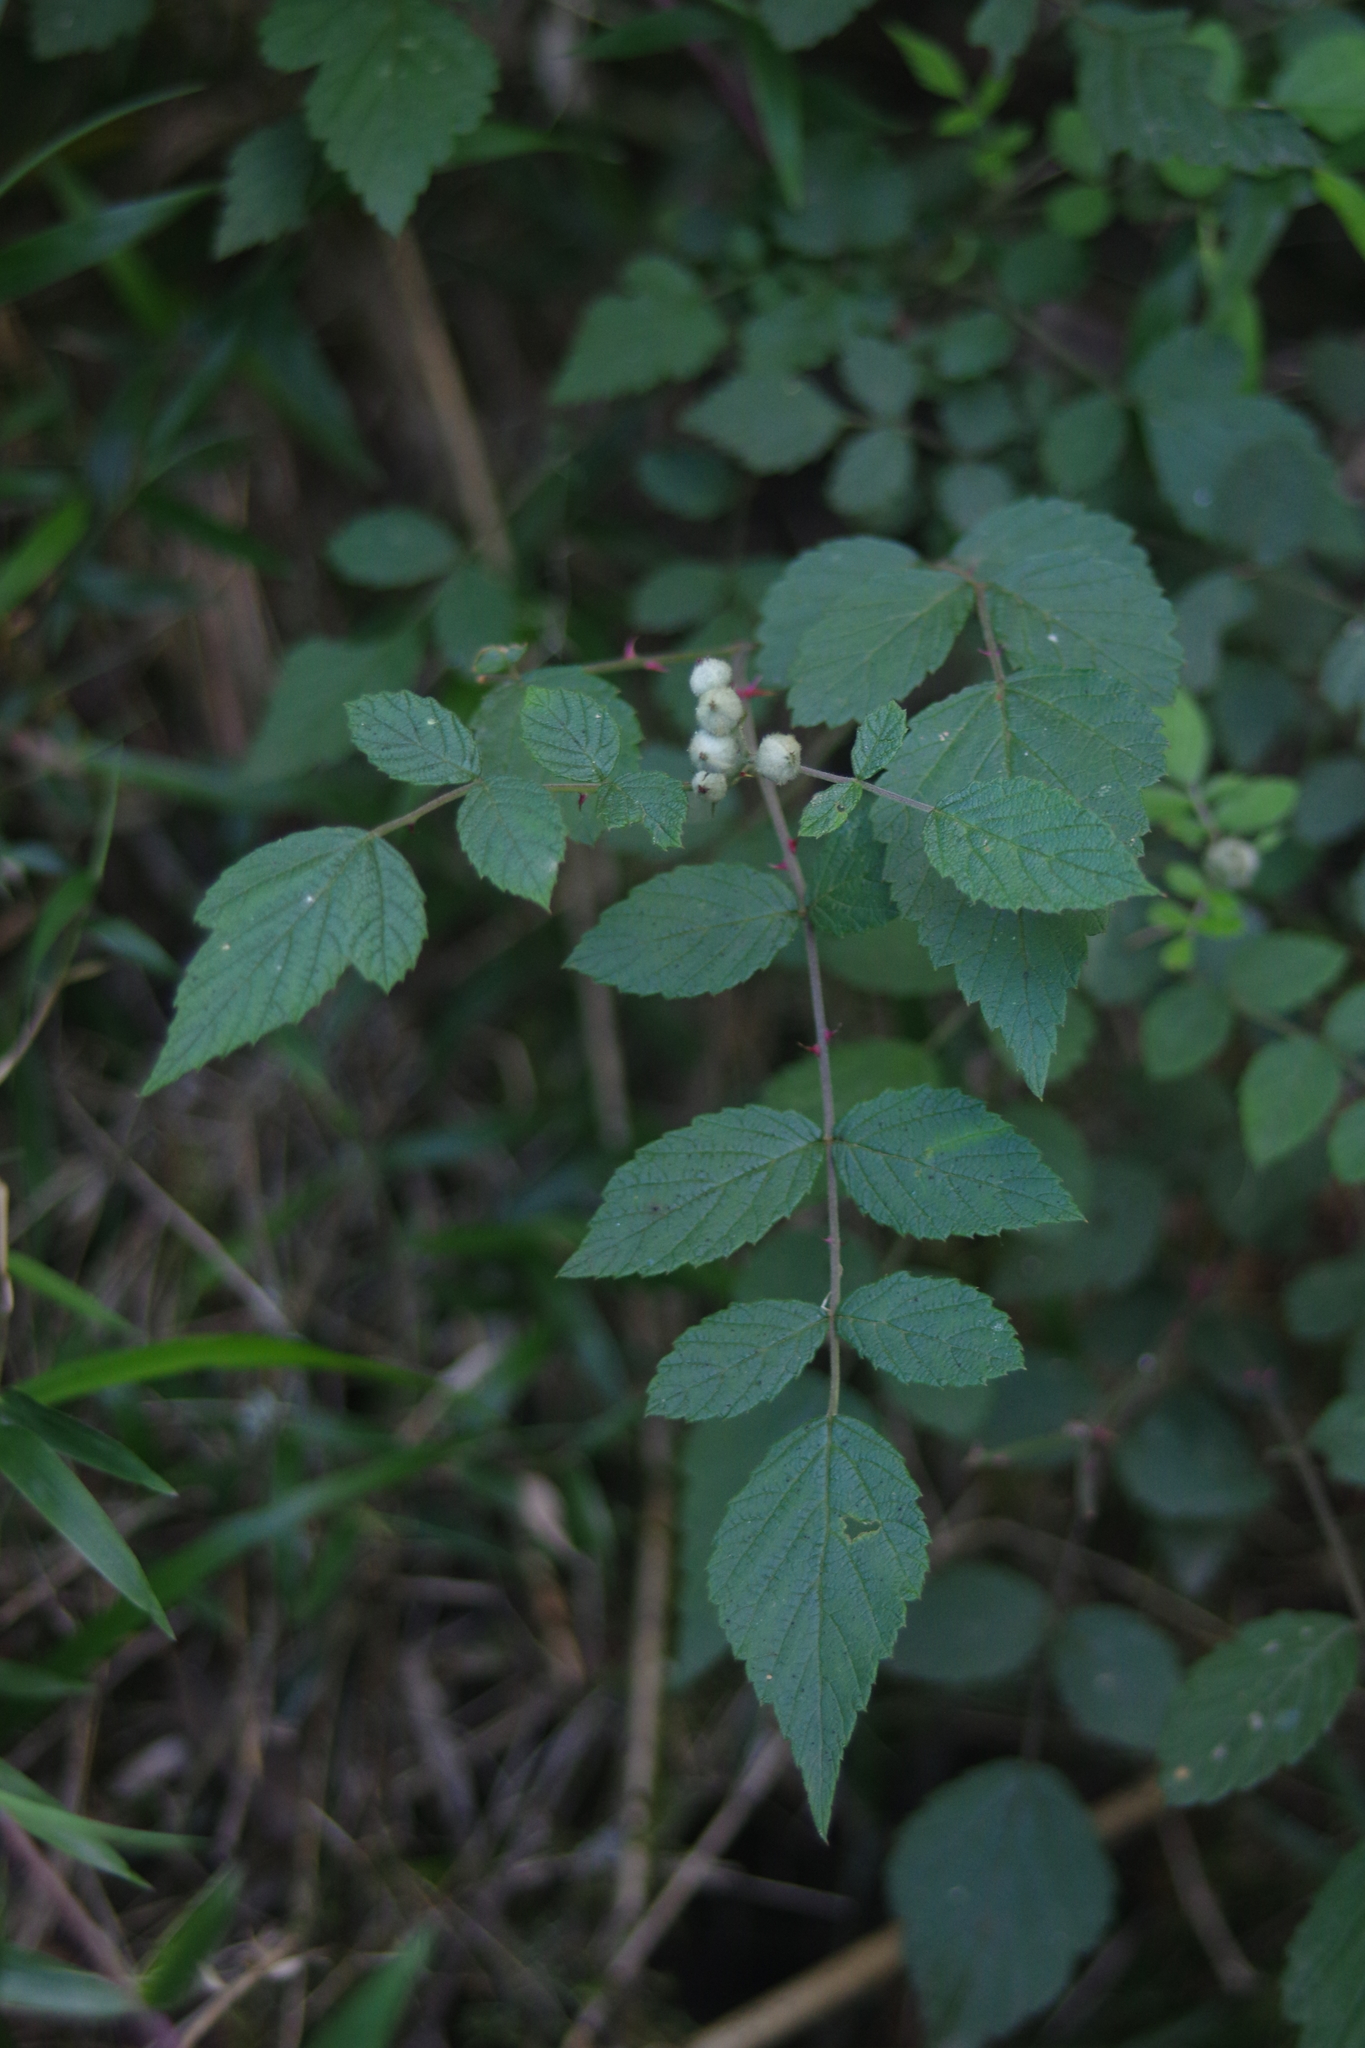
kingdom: Plantae
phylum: Tracheophyta
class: Magnoliopsida
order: Rosales
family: Rosaceae
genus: Rubus
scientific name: Rubus niveus
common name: Snowpeaks raspberry
